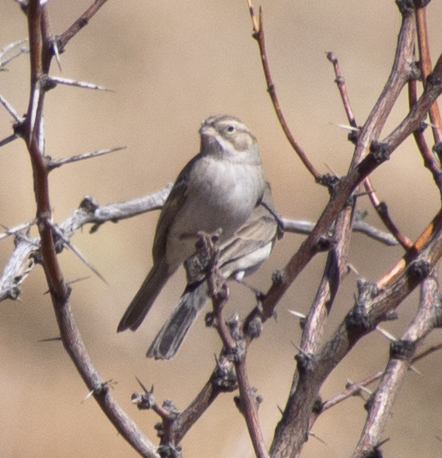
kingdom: Animalia
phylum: Chordata
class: Aves
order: Passeriformes
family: Passerellidae
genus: Spizella
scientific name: Spizella breweri
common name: Brewer's sparrow
